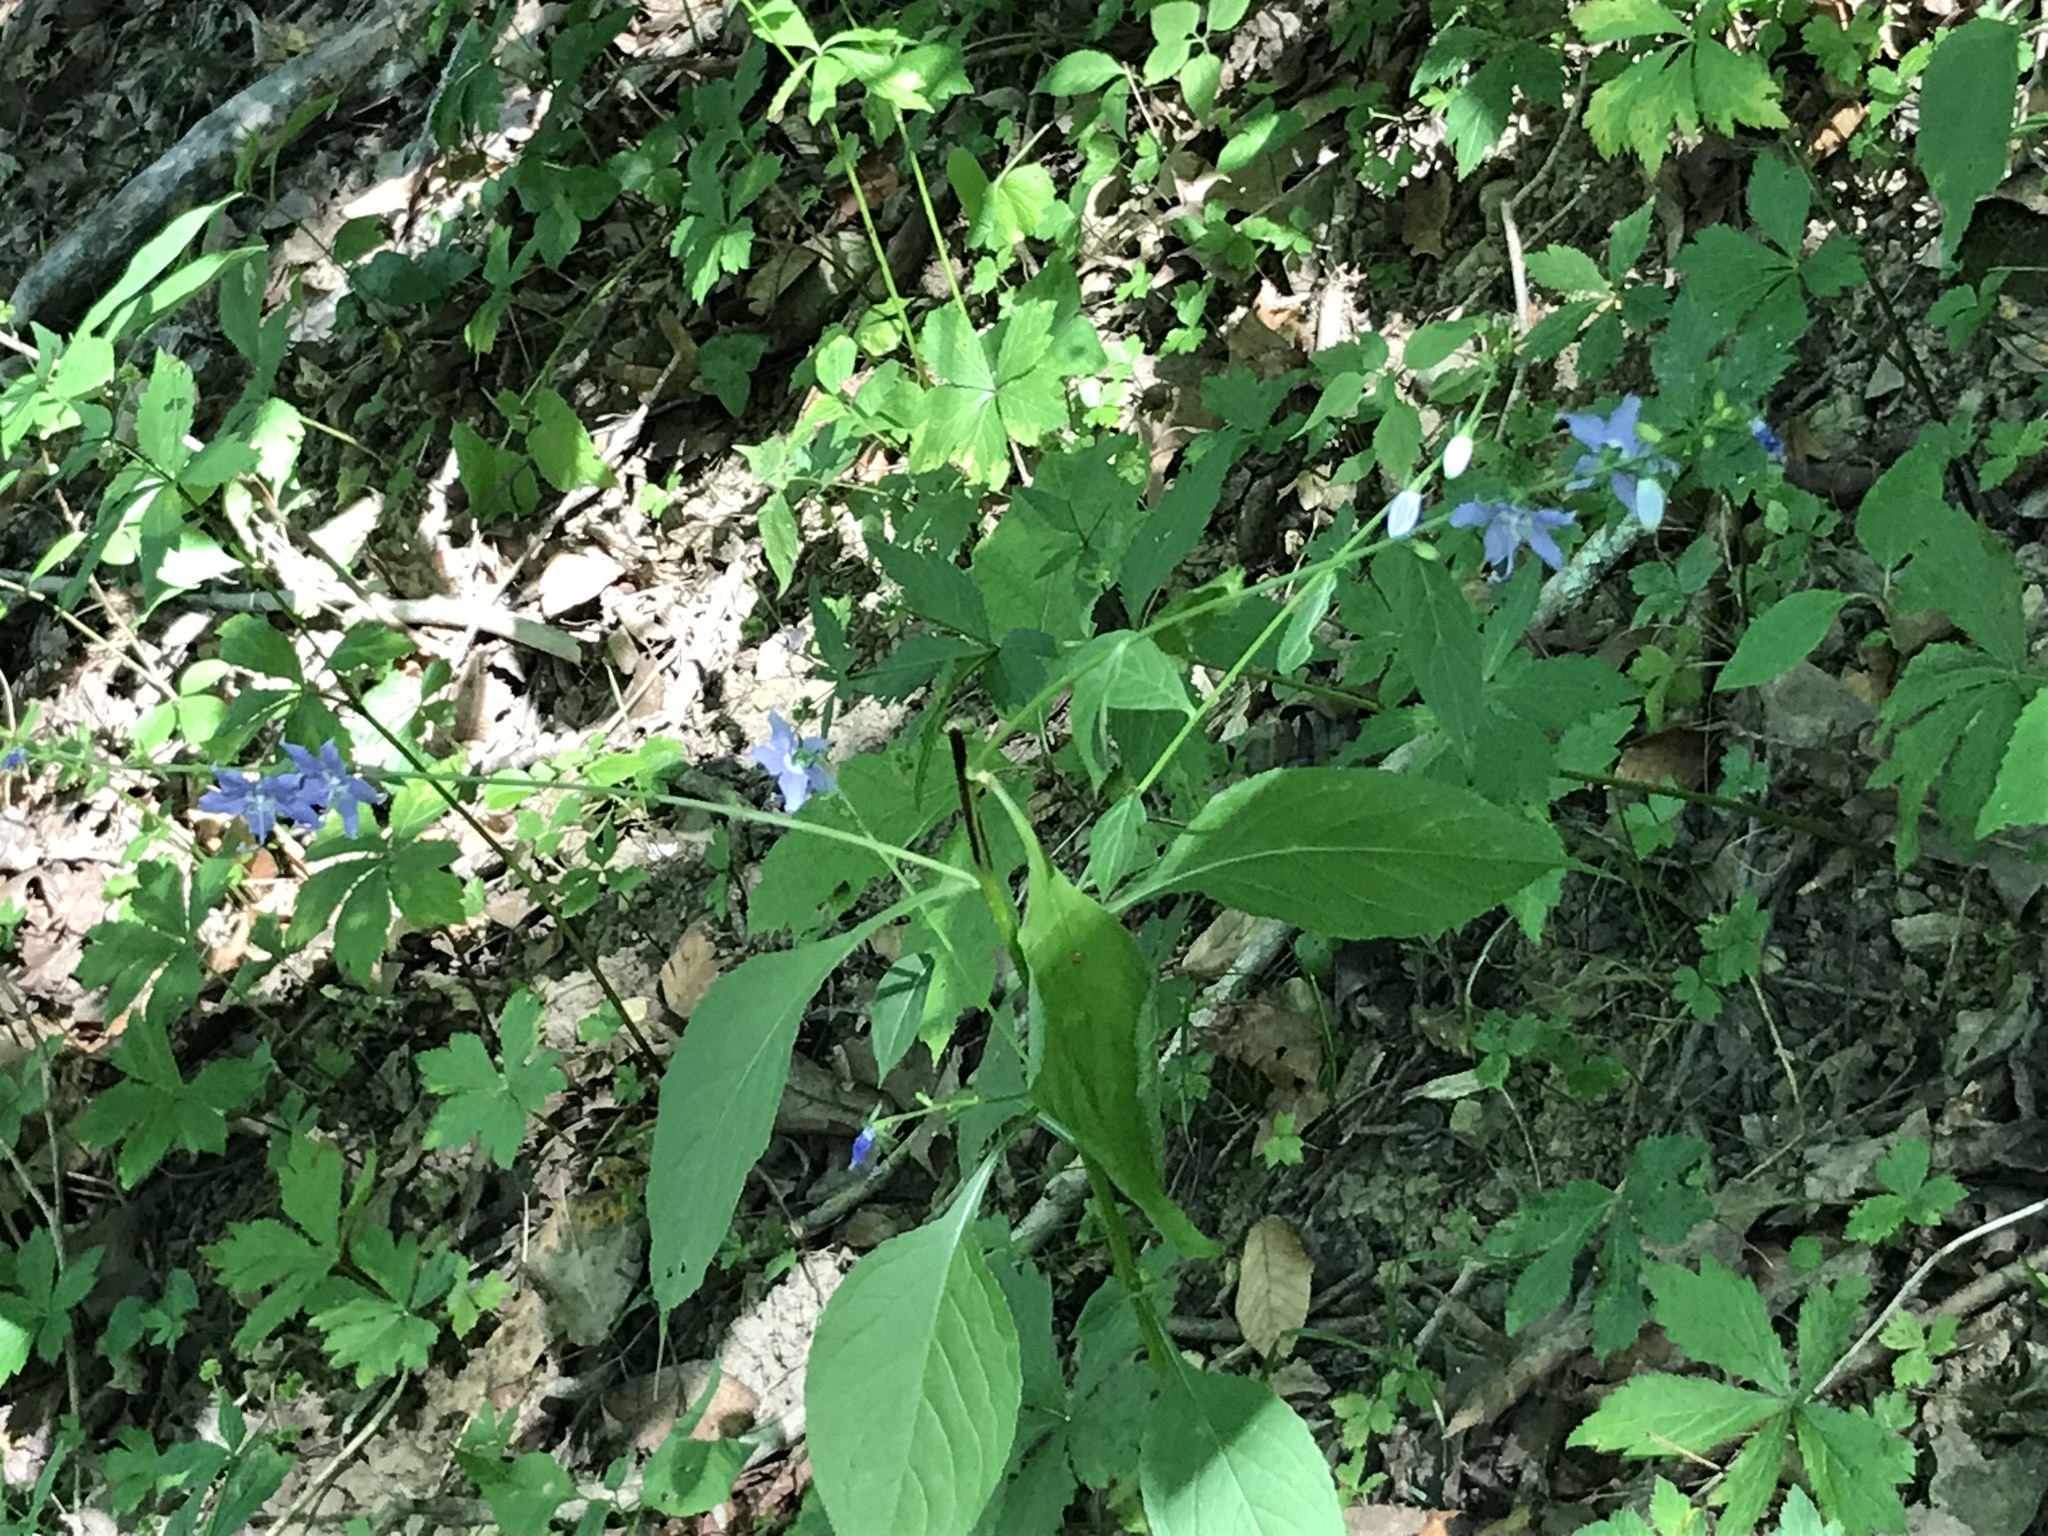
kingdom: Plantae
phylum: Tracheophyta
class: Magnoliopsida
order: Asterales
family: Campanulaceae
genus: Campanulastrum
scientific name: Campanulastrum americanum
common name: American bellflower
